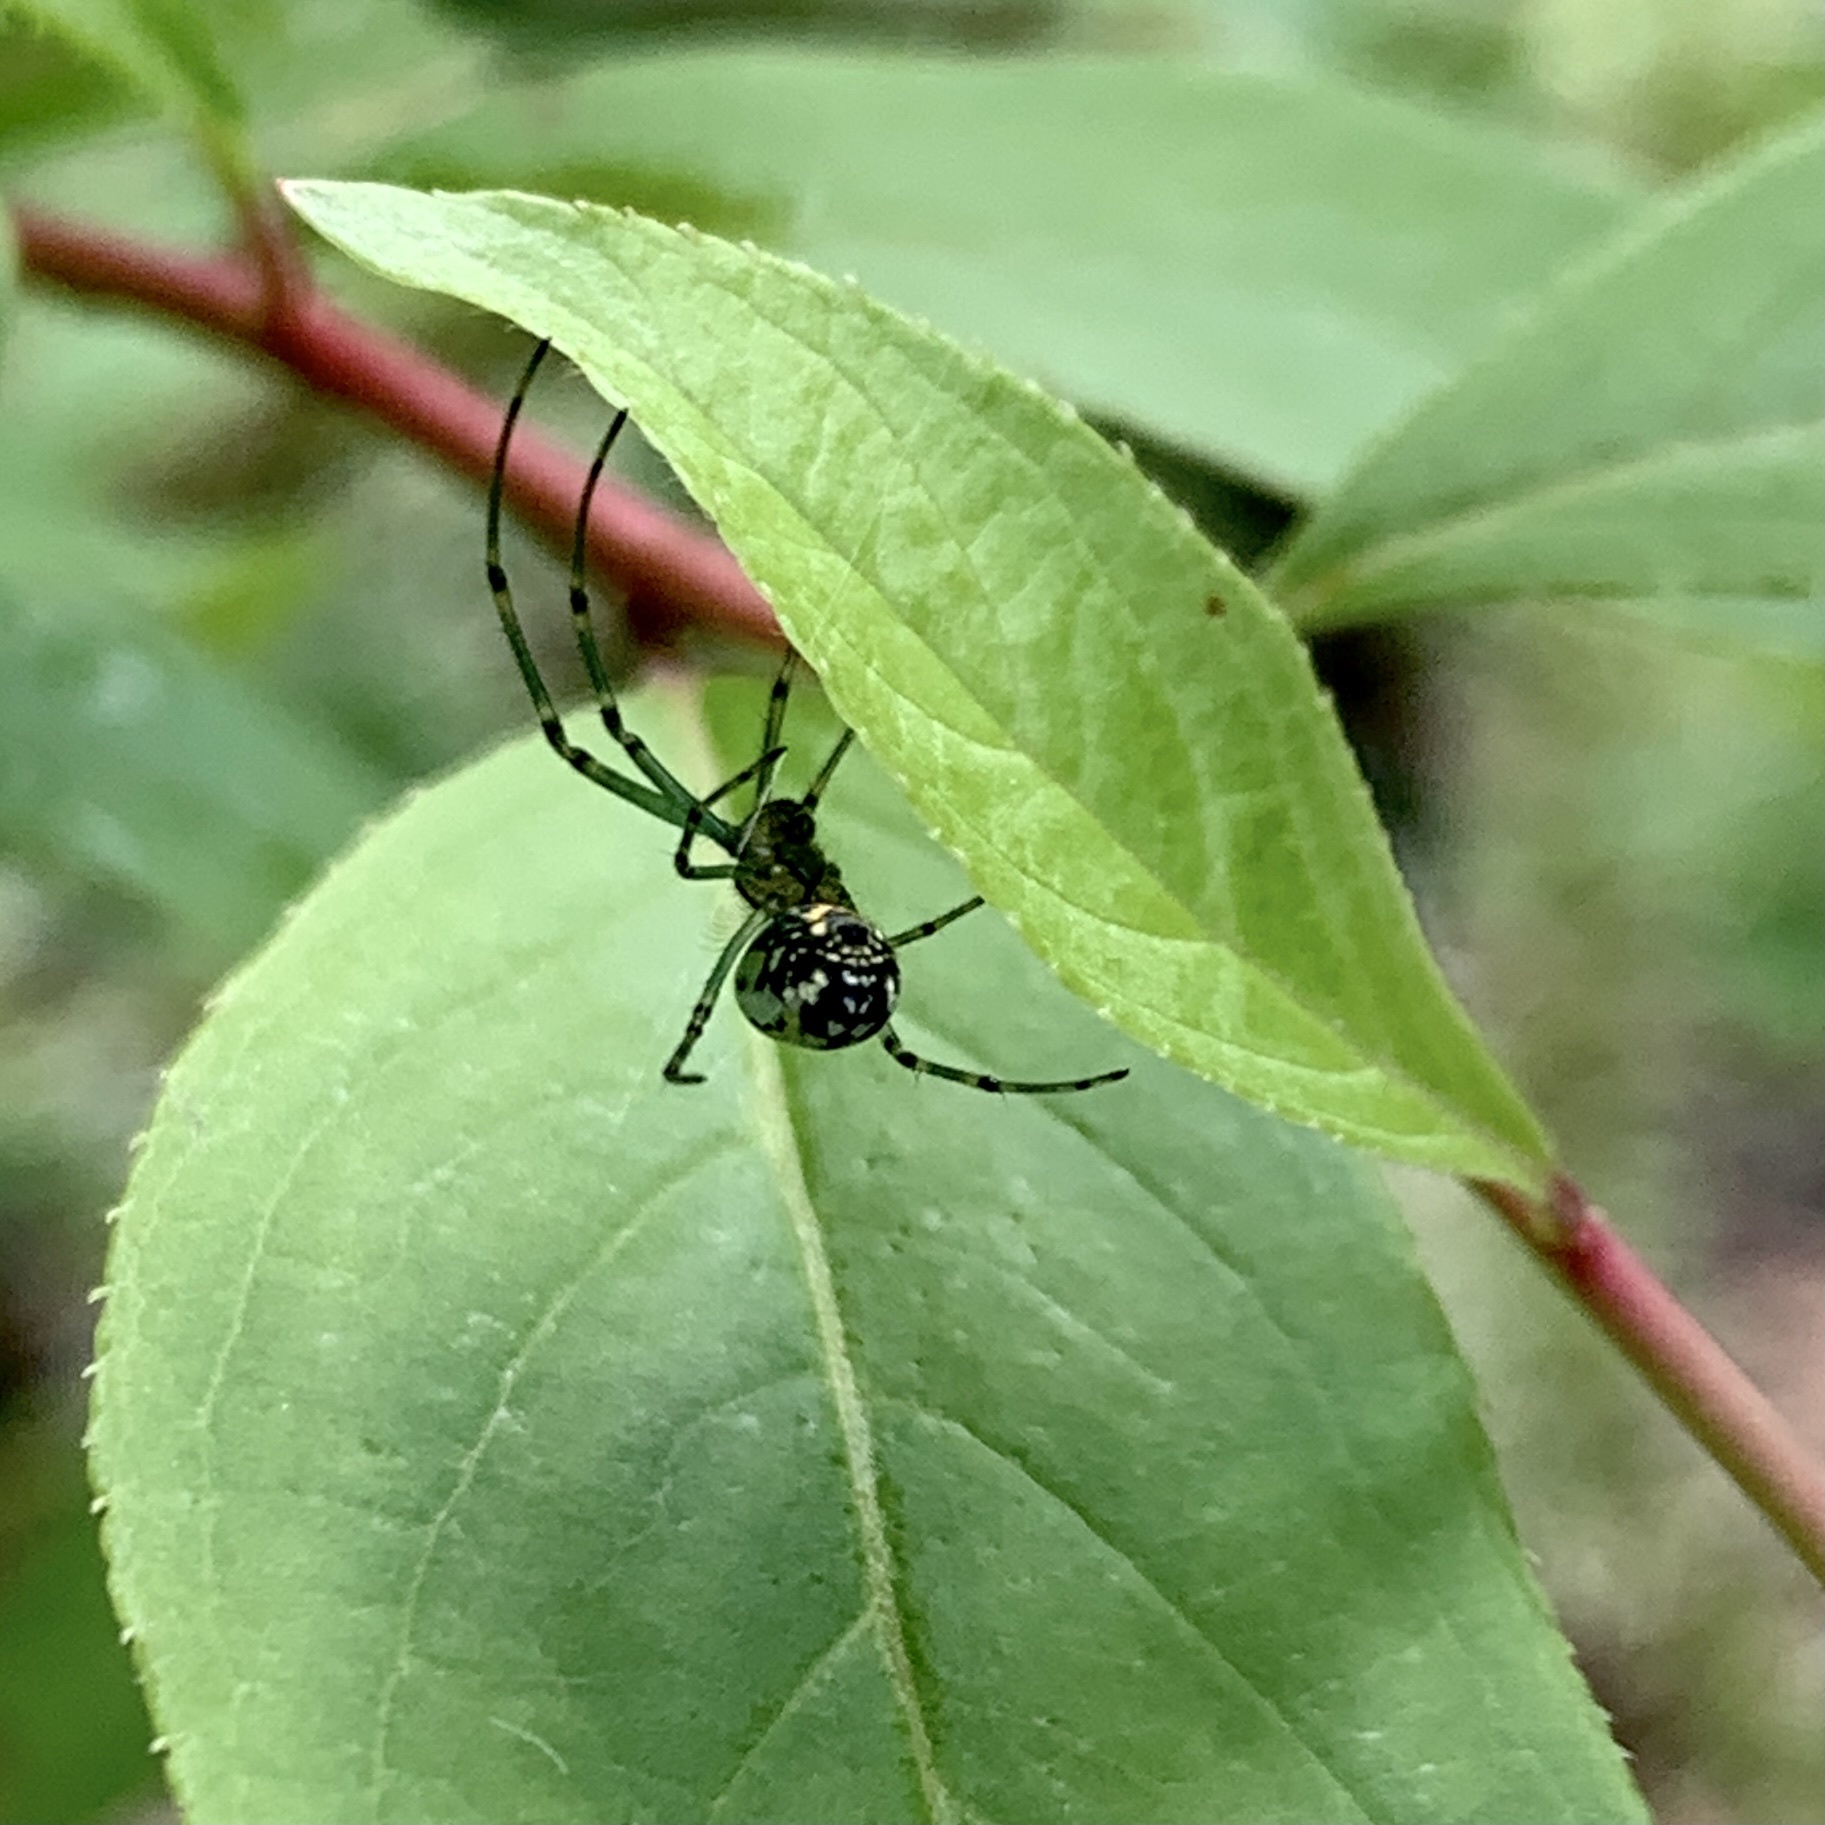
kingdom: Animalia
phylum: Arthropoda
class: Arachnida
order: Araneae
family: Tetragnathidae
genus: Leucauge
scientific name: Leucauge venusta
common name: Longjawed orb weavers
